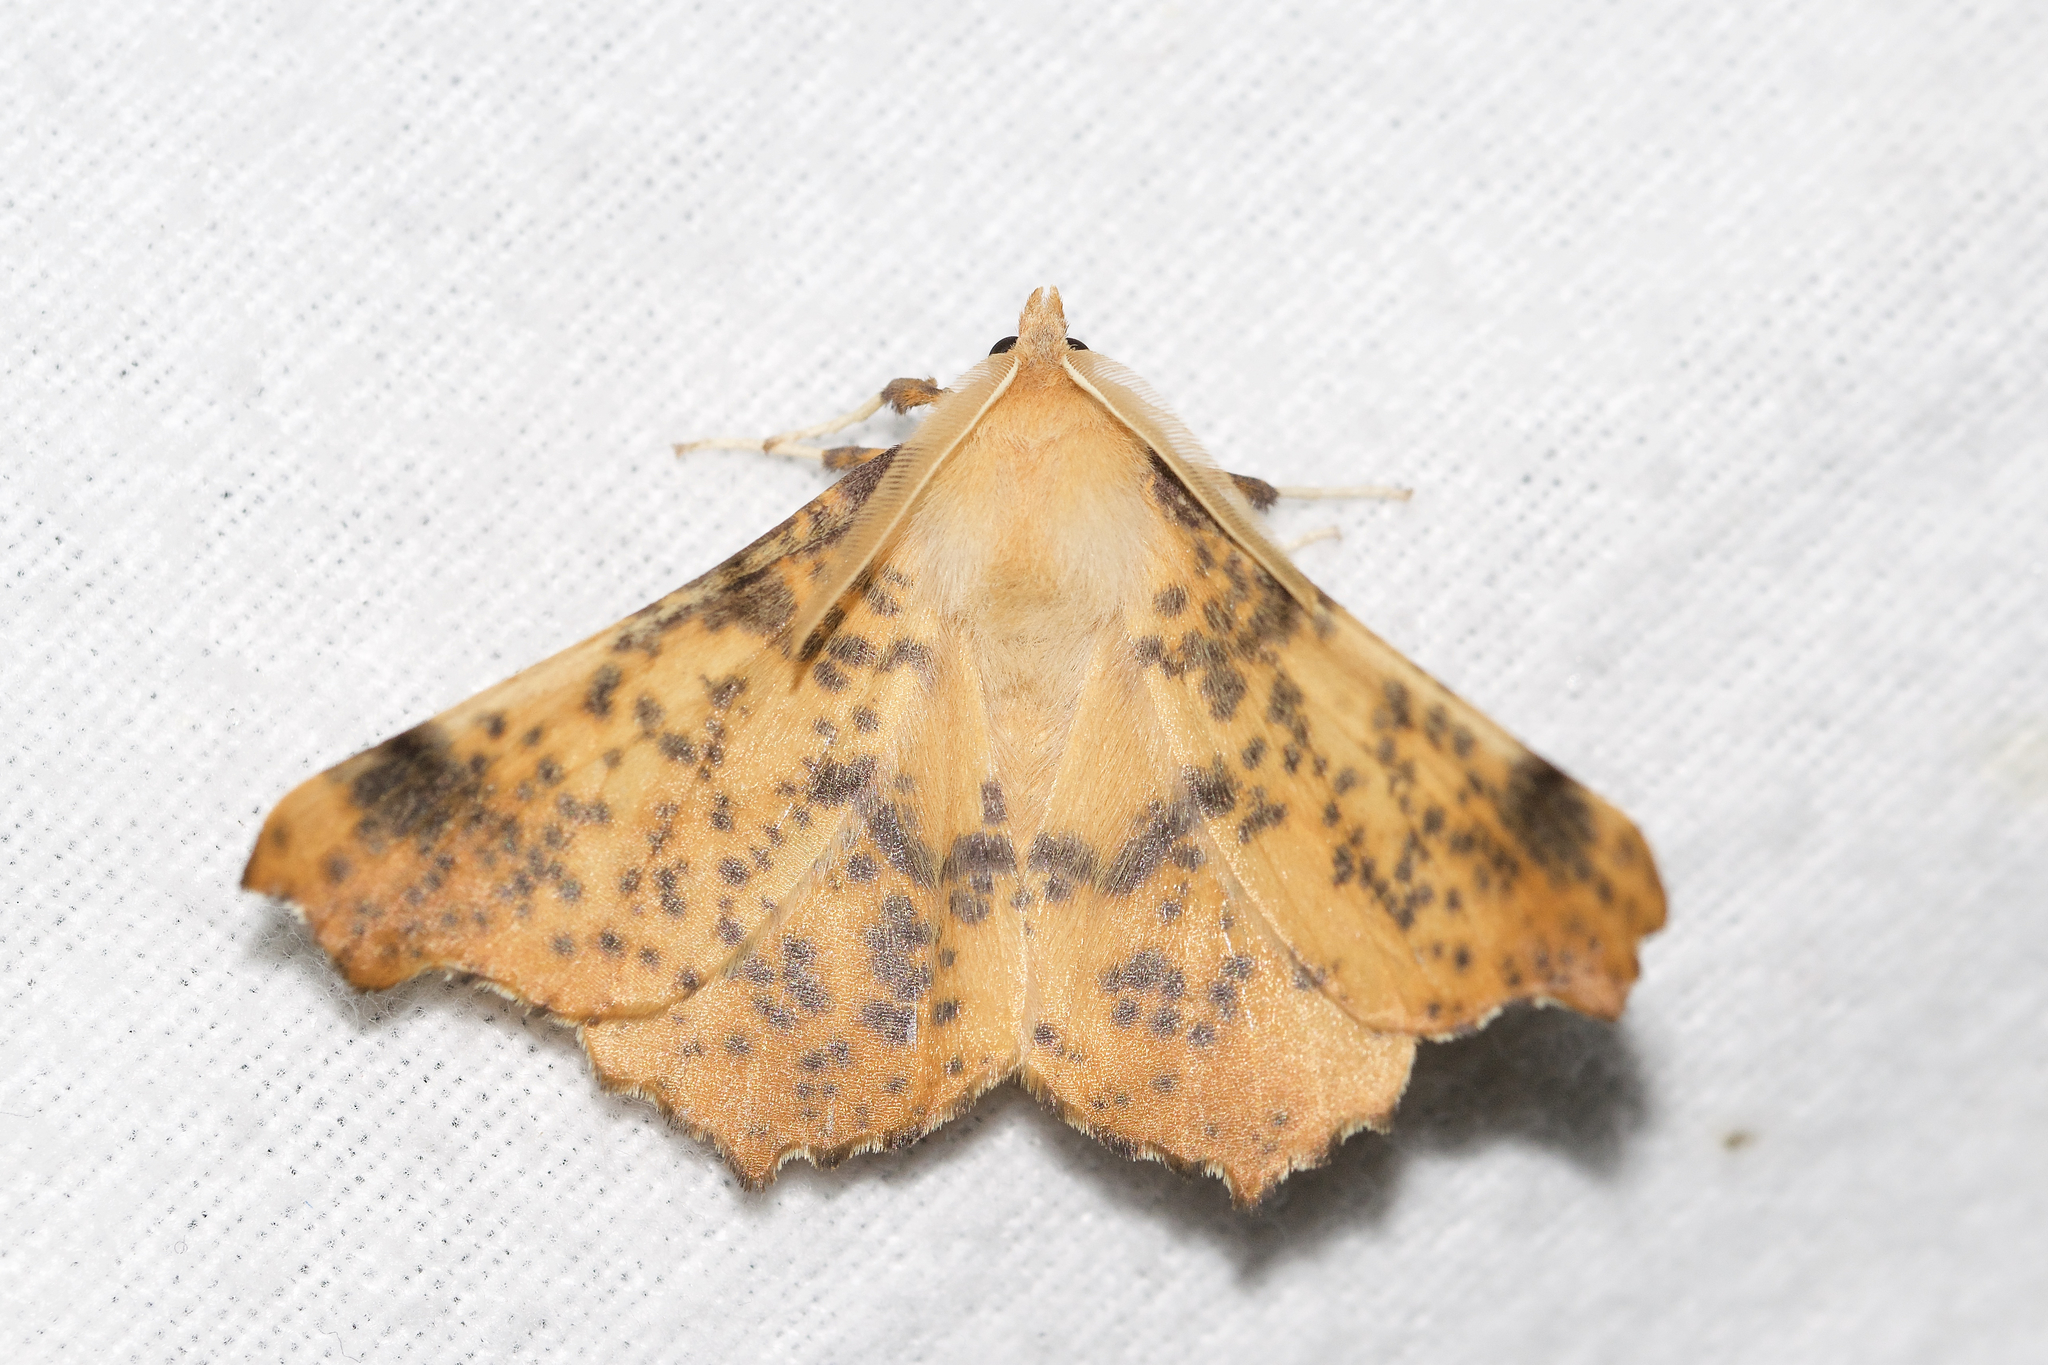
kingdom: Animalia
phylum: Arthropoda
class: Insecta
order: Lepidoptera
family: Geometridae
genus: Ennomos
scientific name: Ennomos magnaria
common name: Maple spanworm
